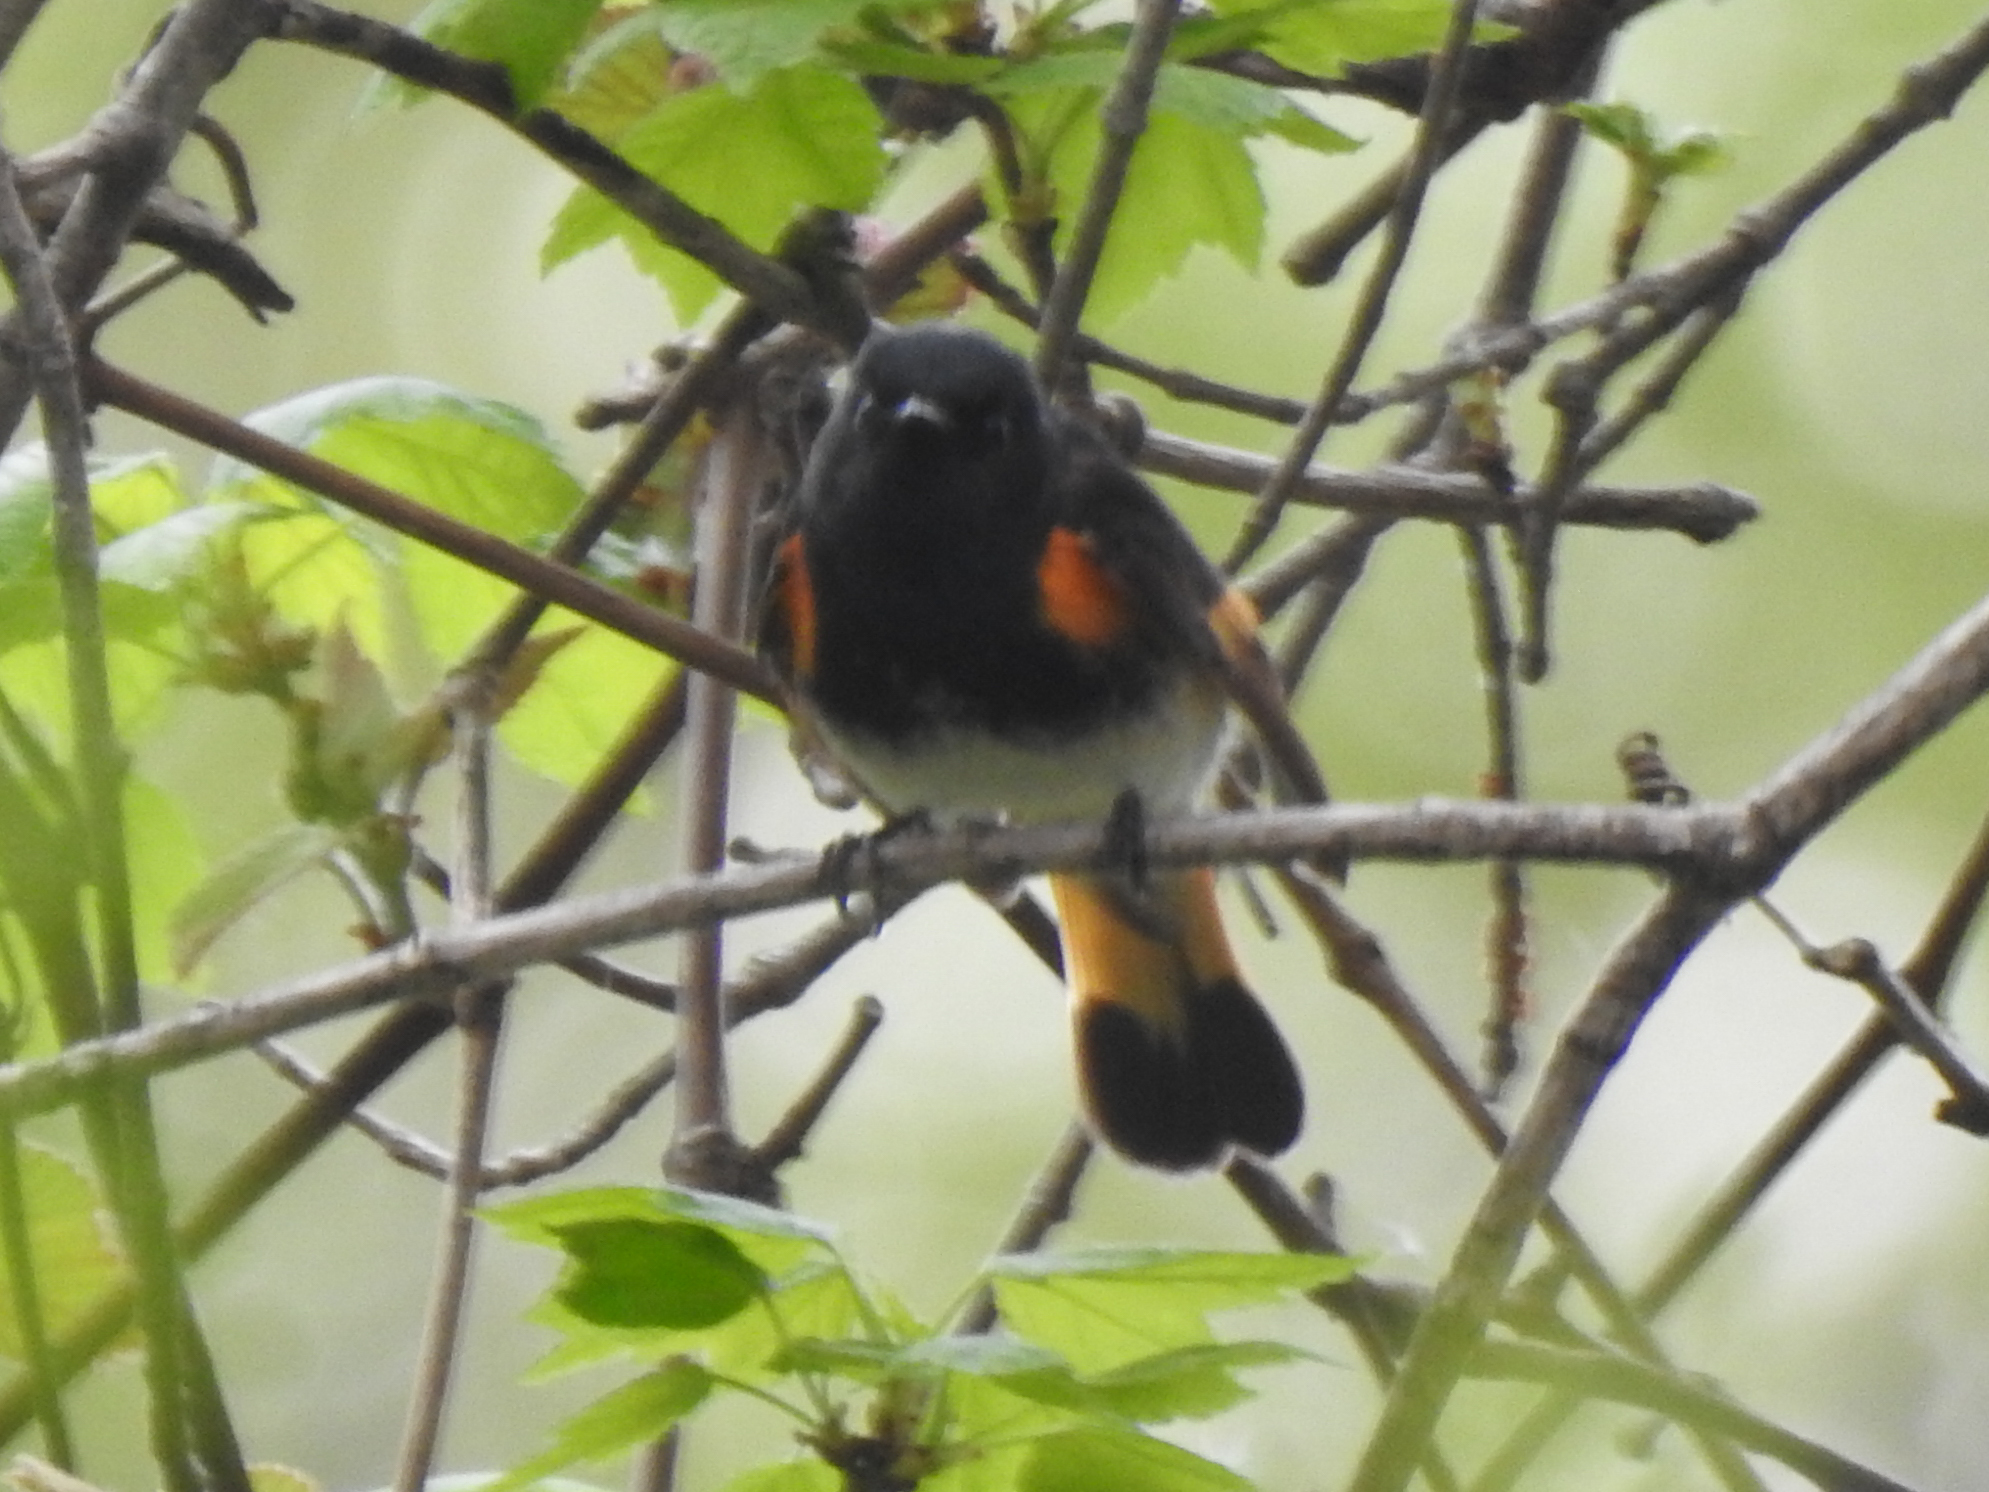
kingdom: Animalia
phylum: Chordata
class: Aves
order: Passeriformes
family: Parulidae
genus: Setophaga
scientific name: Setophaga ruticilla
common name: American redstart
